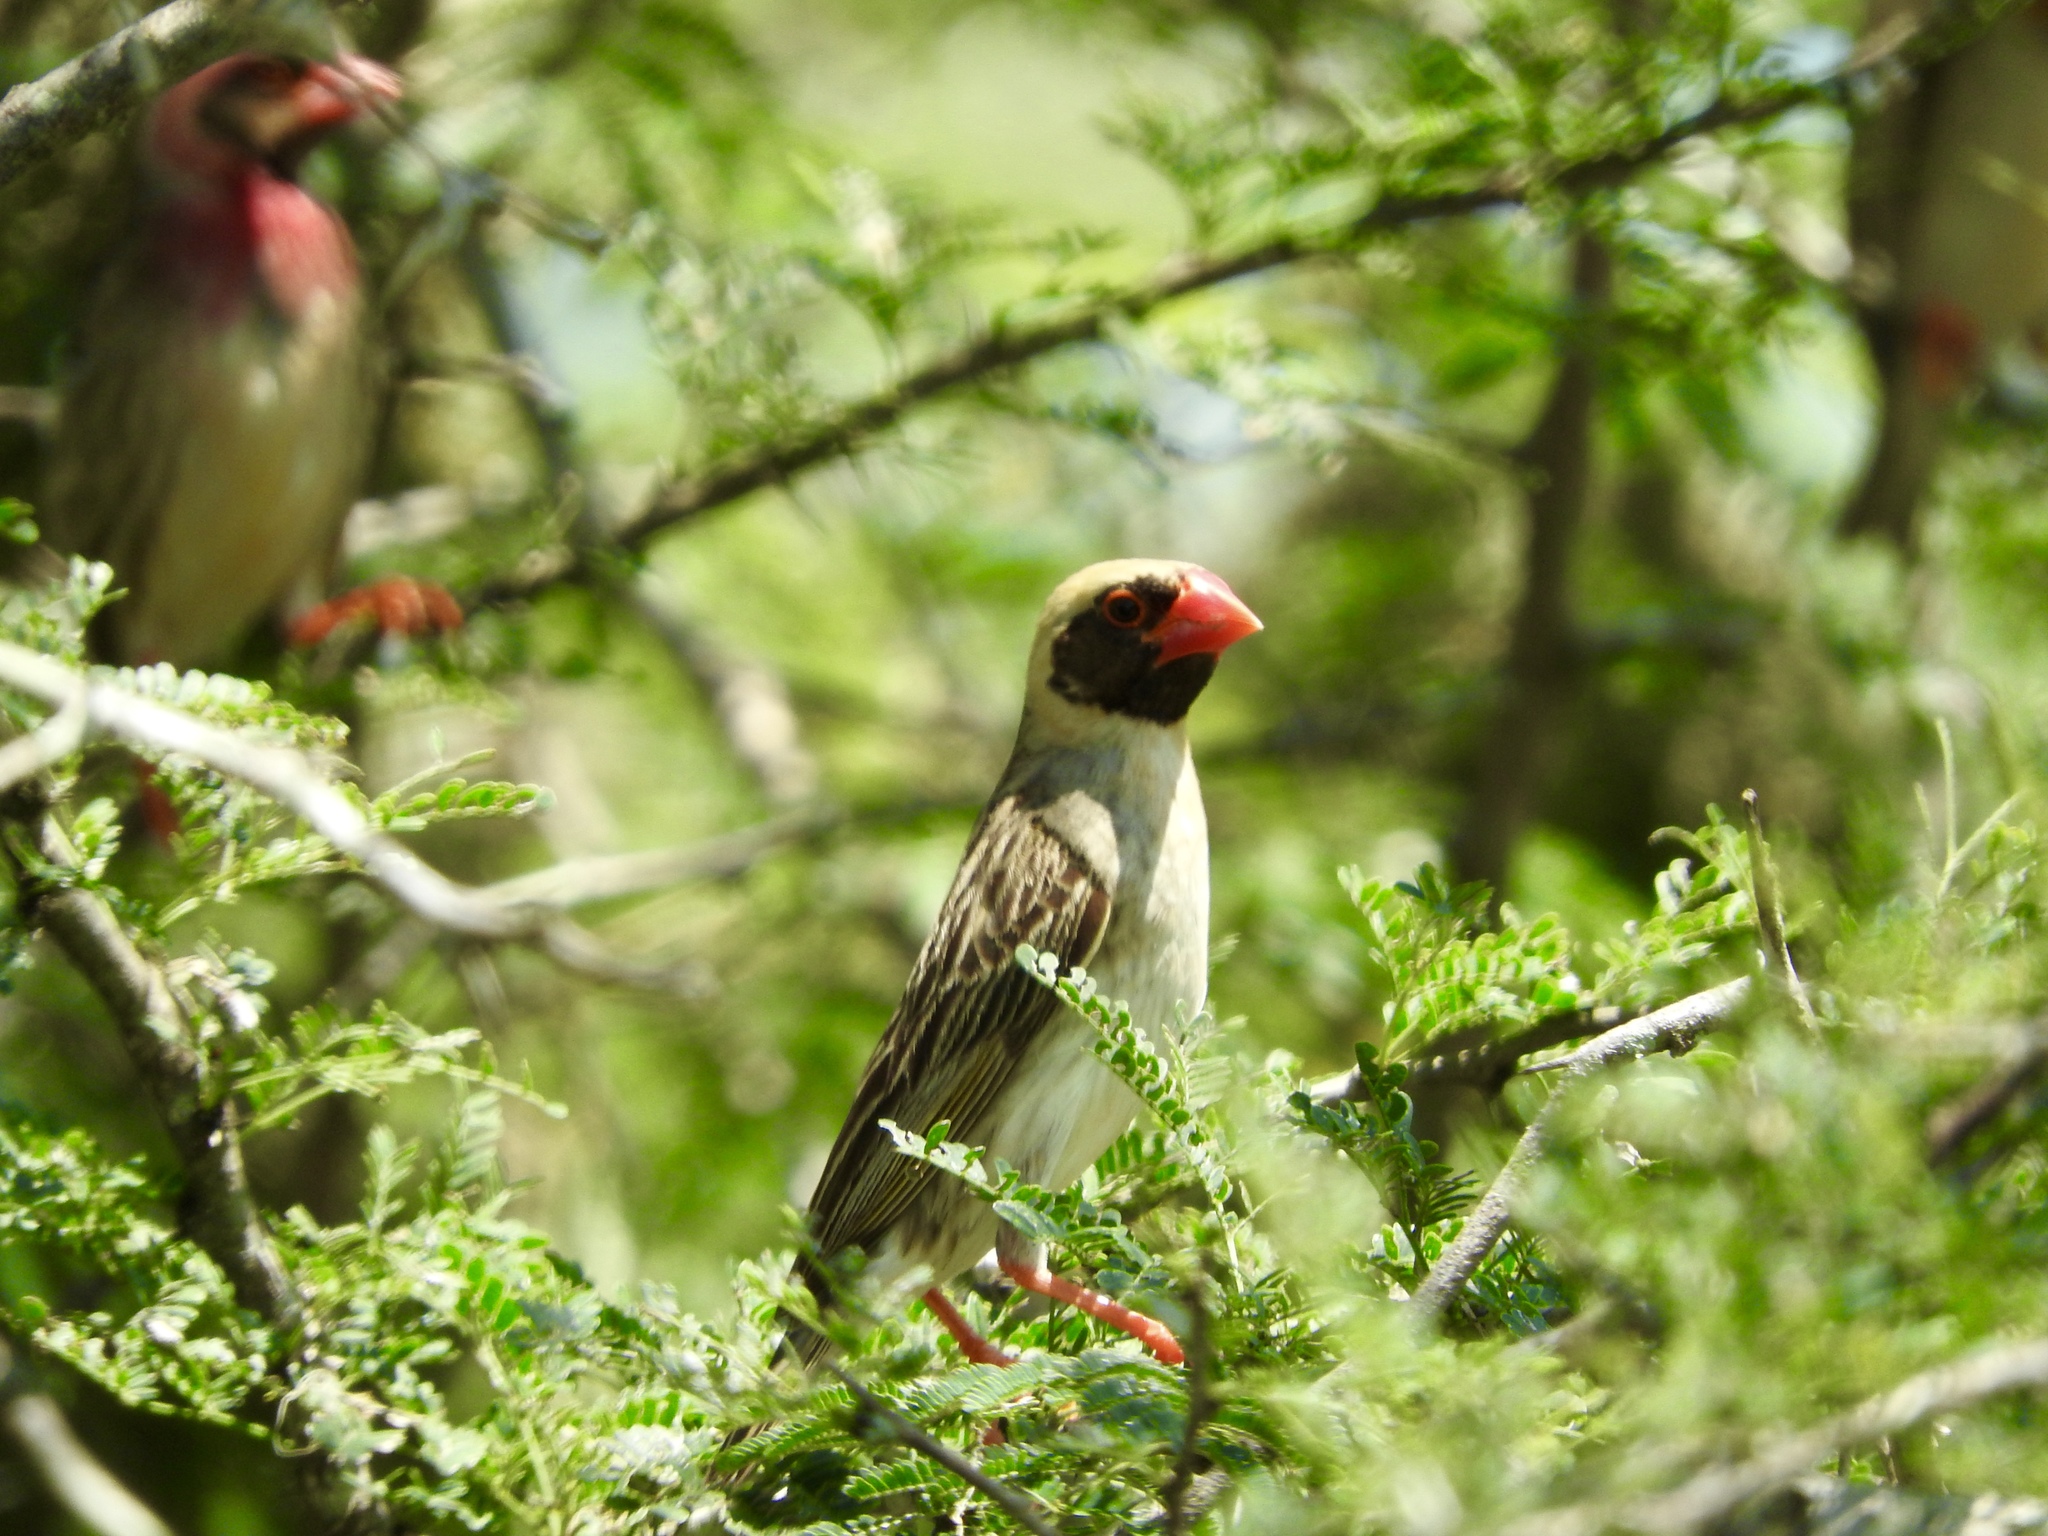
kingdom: Animalia
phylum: Chordata
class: Aves
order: Passeriformes
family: Ploceidae
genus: Quelea
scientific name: Quelea quelea
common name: Red-billed quelea
